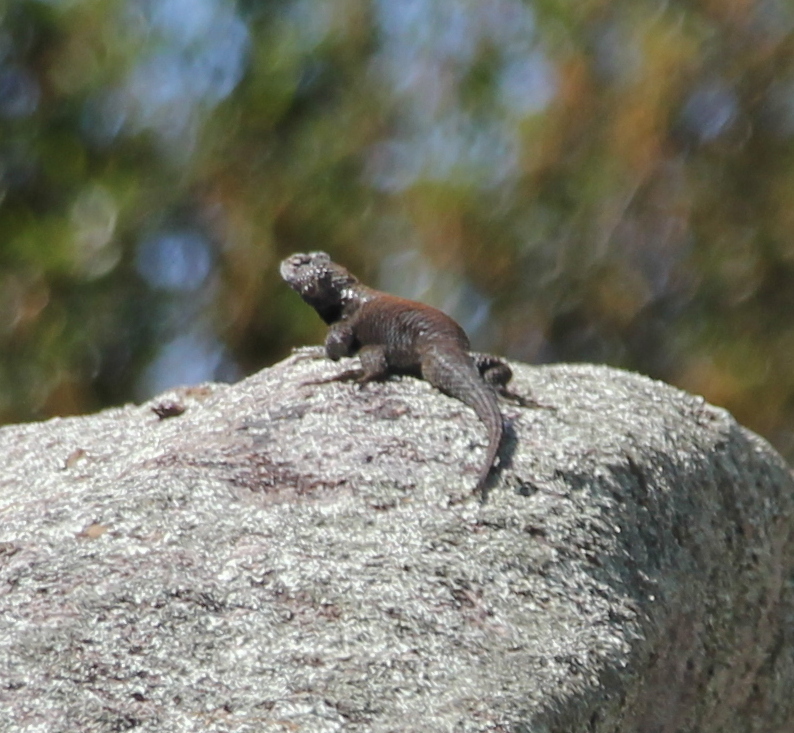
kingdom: Animalia
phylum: Chordata
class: Squamata
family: Phrynosomatidae
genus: Sceloporus
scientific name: Sceloporus orcutti
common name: Granite spiny lizard
